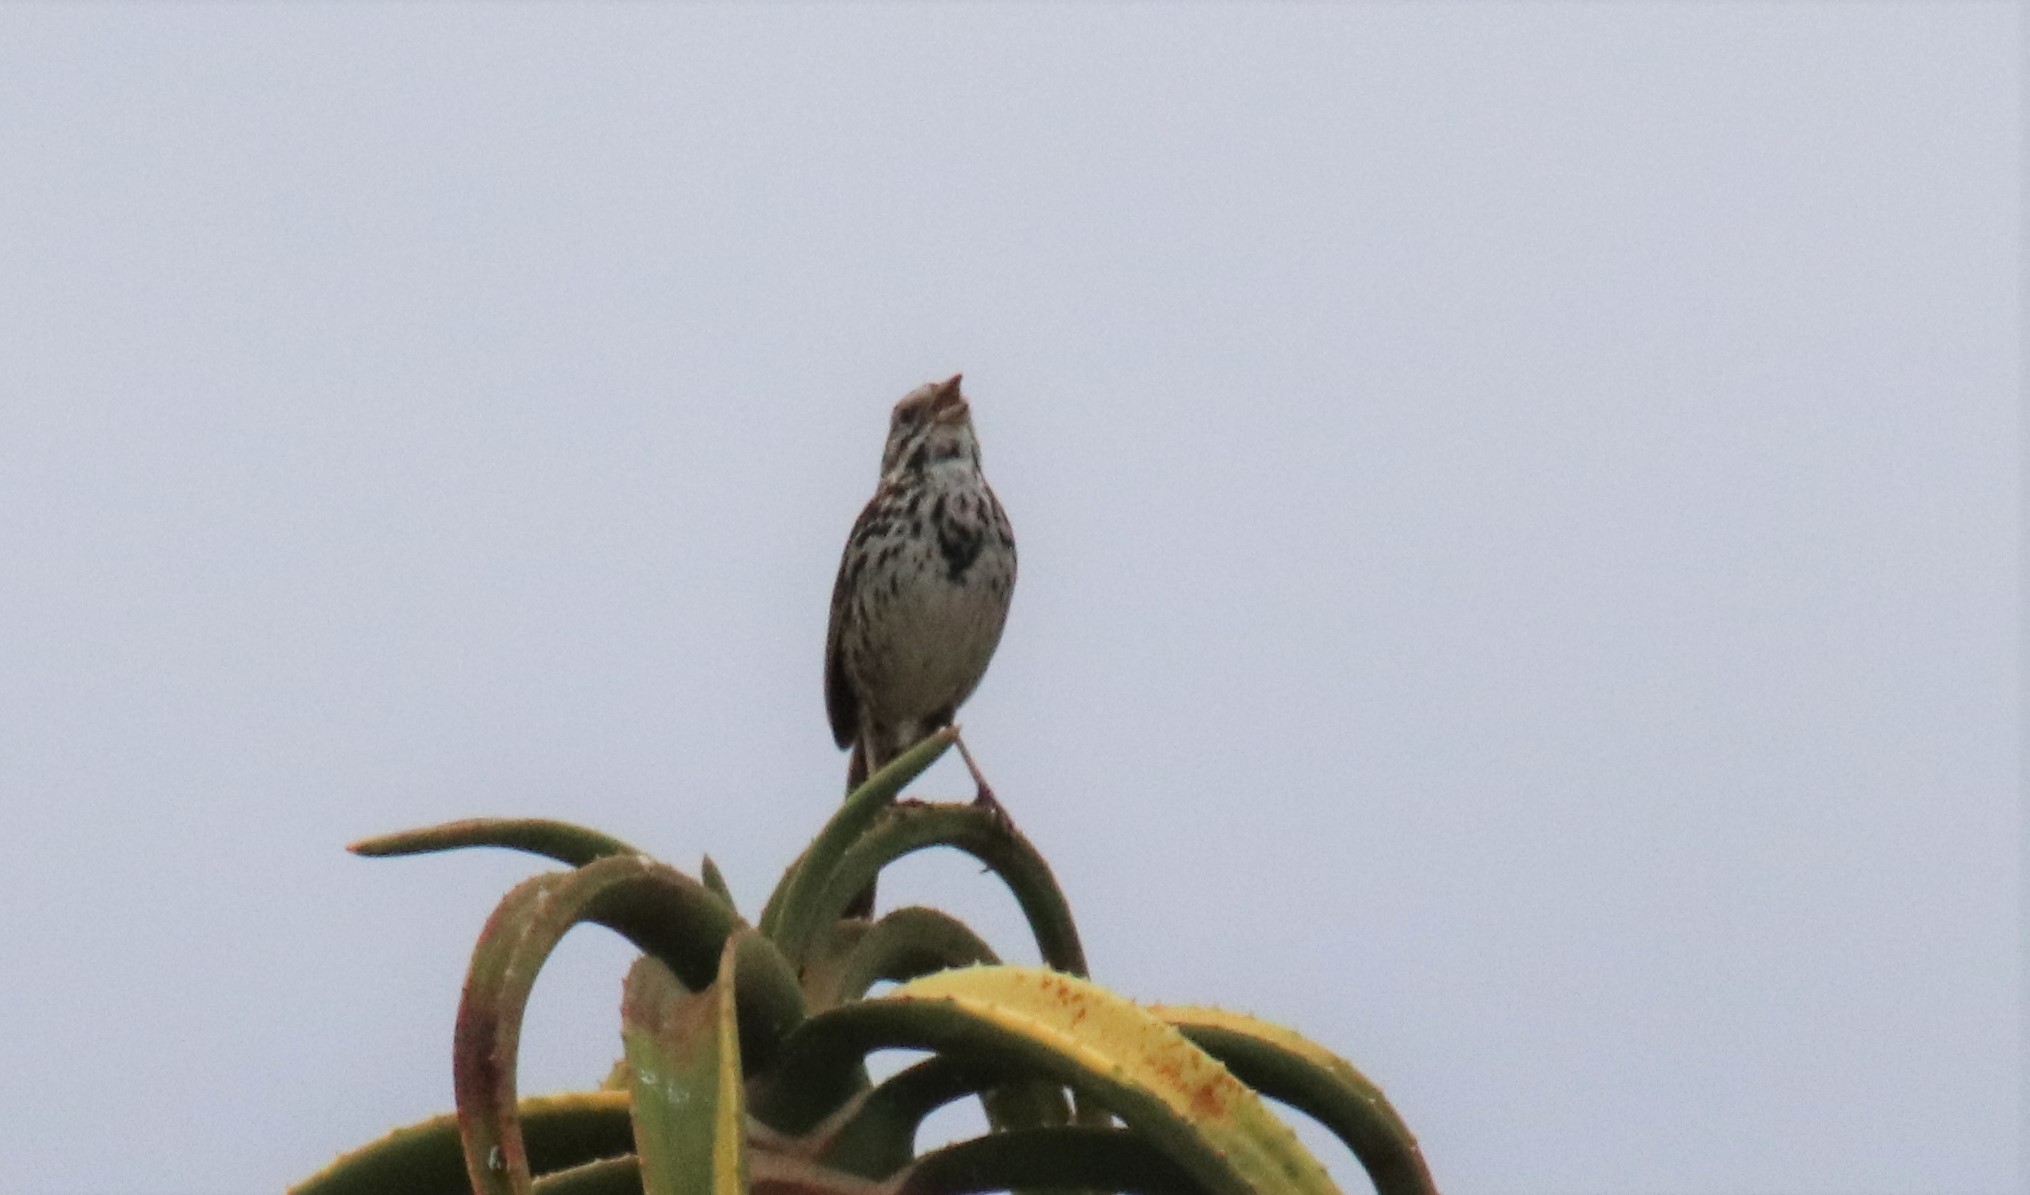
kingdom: Animalia
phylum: Chordata
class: Aves
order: Passeriformes
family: Passerellidae
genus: Melospiza
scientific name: Melospiza melodia
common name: Song sparrow
